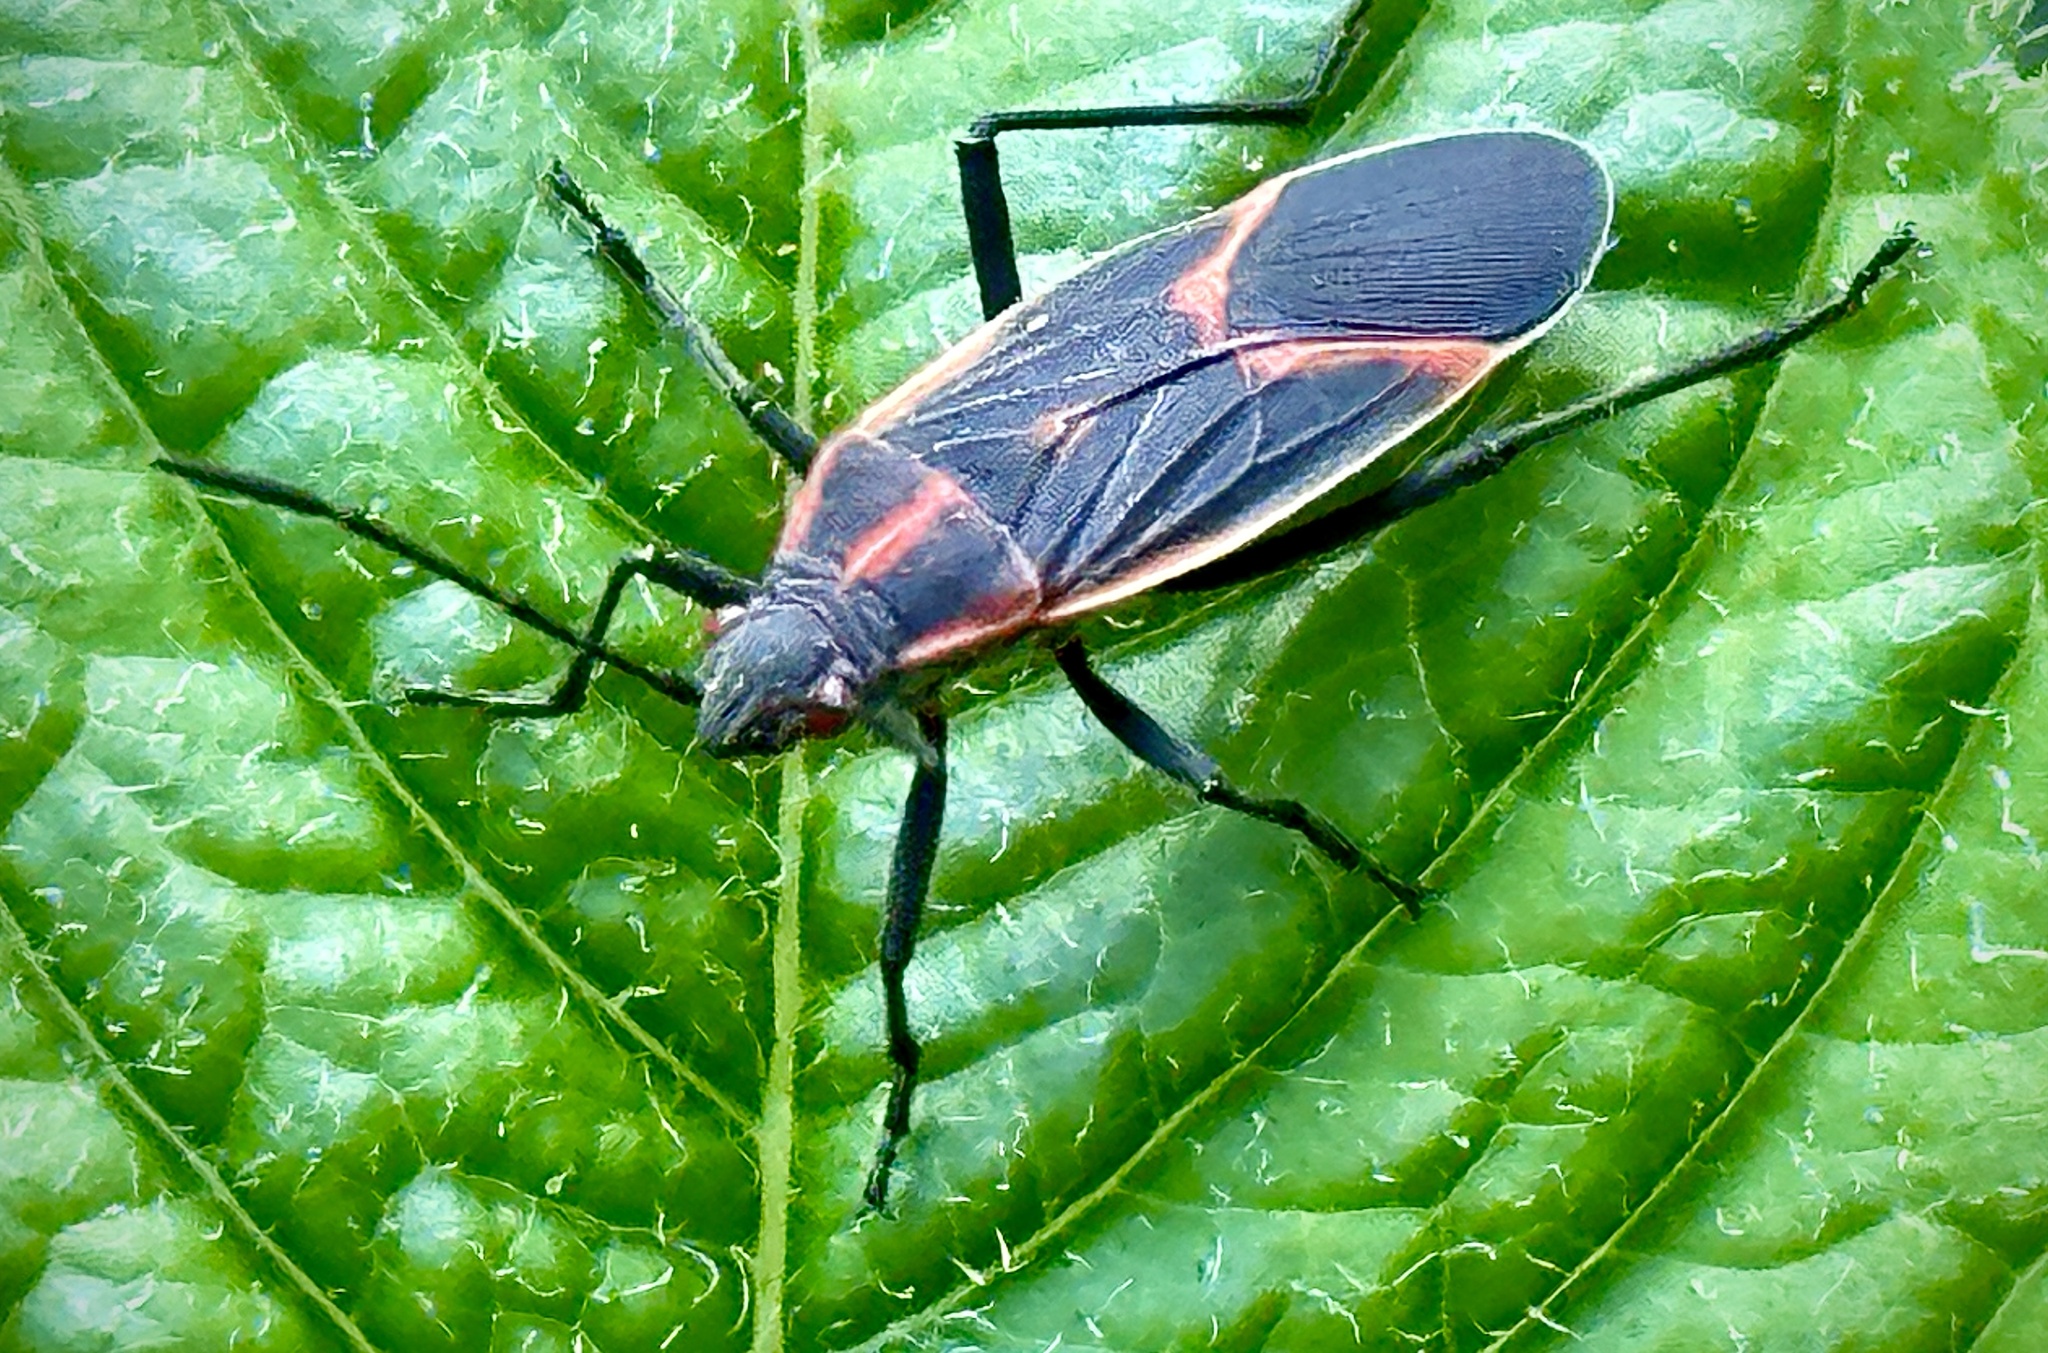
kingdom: Animalia
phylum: Arthropoda
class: Insecta
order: Hemiptera
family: Rhopalidae
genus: Boisea
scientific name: Boisea trivittata
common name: Boxelder bug
